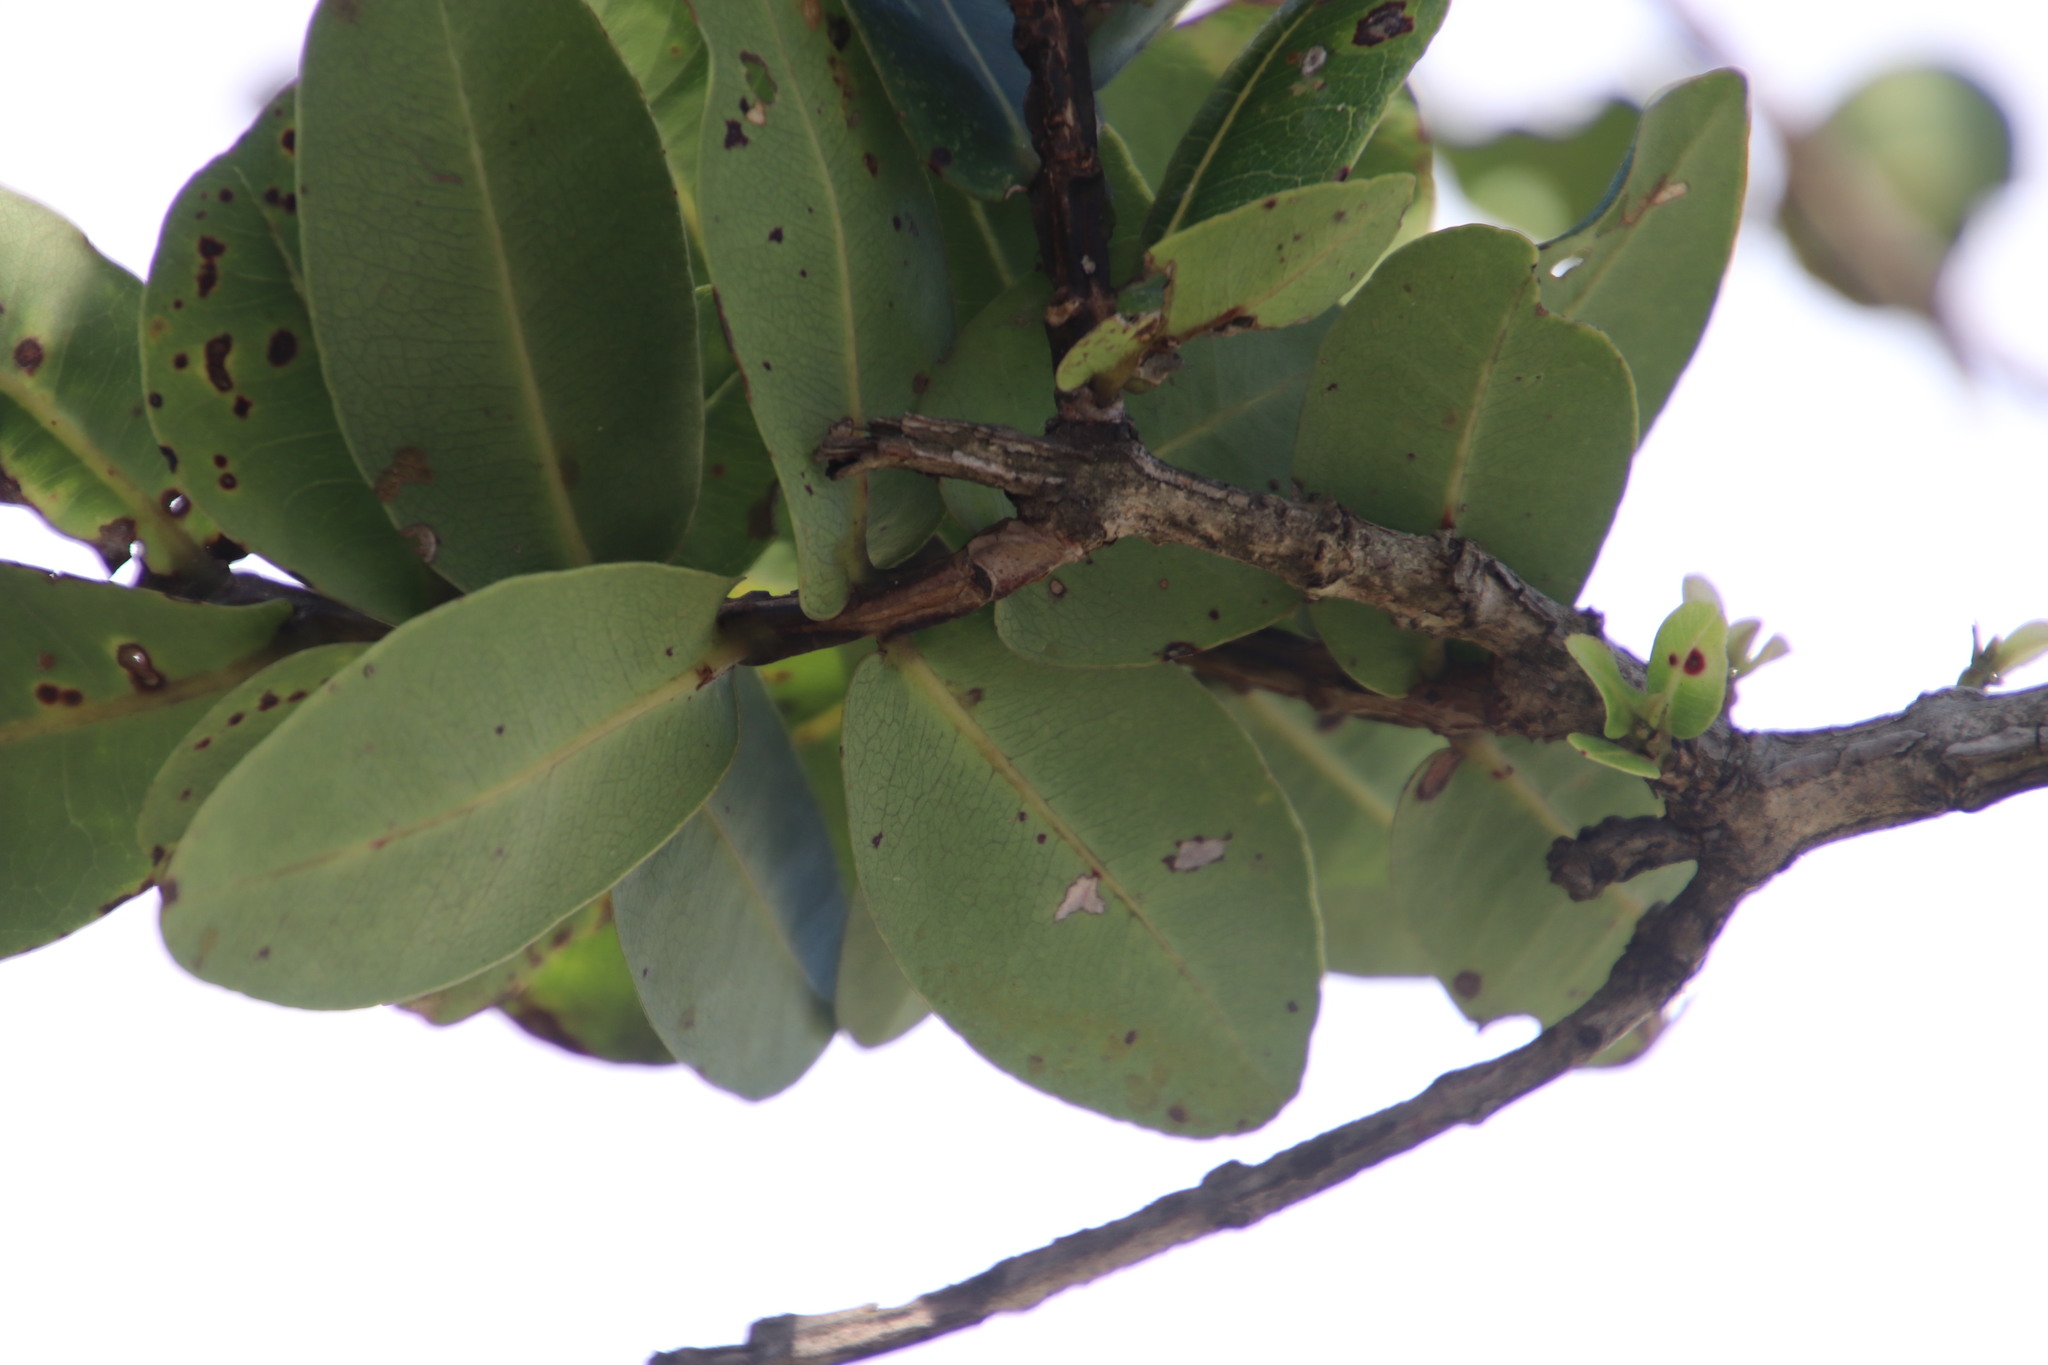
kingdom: Plantae
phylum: Tracheophyta
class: Magnoliopsida
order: Myrtales
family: Myrtaceae
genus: Syzygium
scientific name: Syzygium cordatum
